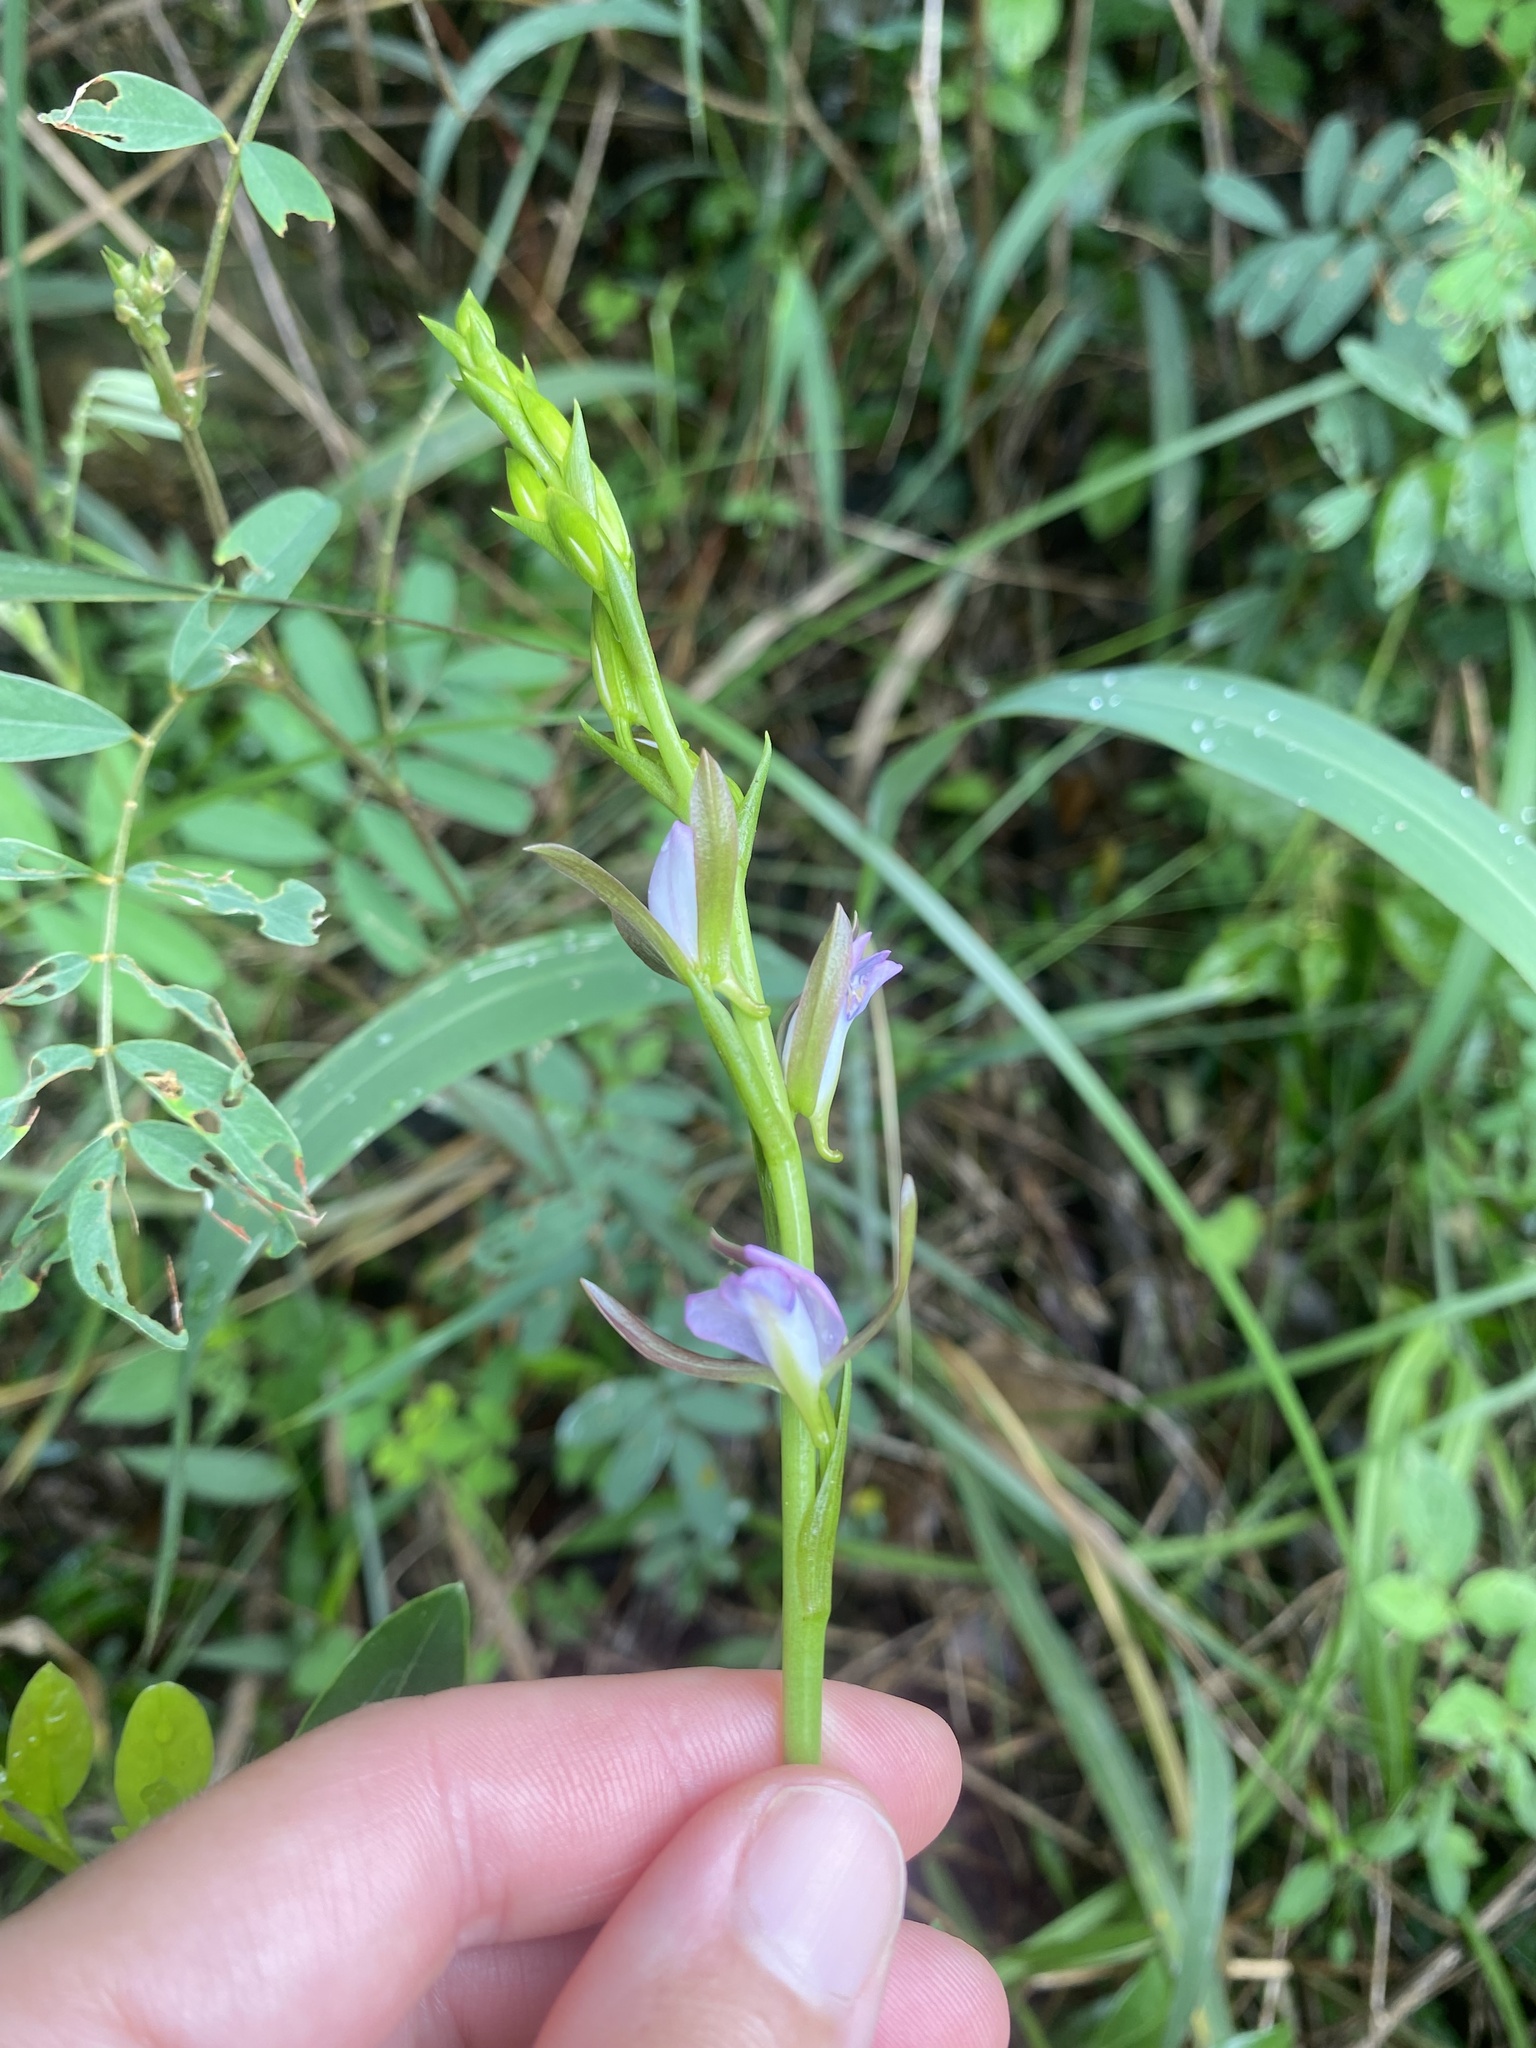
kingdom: Plantae
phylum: Tracheophyta
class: Liliopsida
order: Asparagales
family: Orchidaceae
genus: Eulophia
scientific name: Eulophia hians
